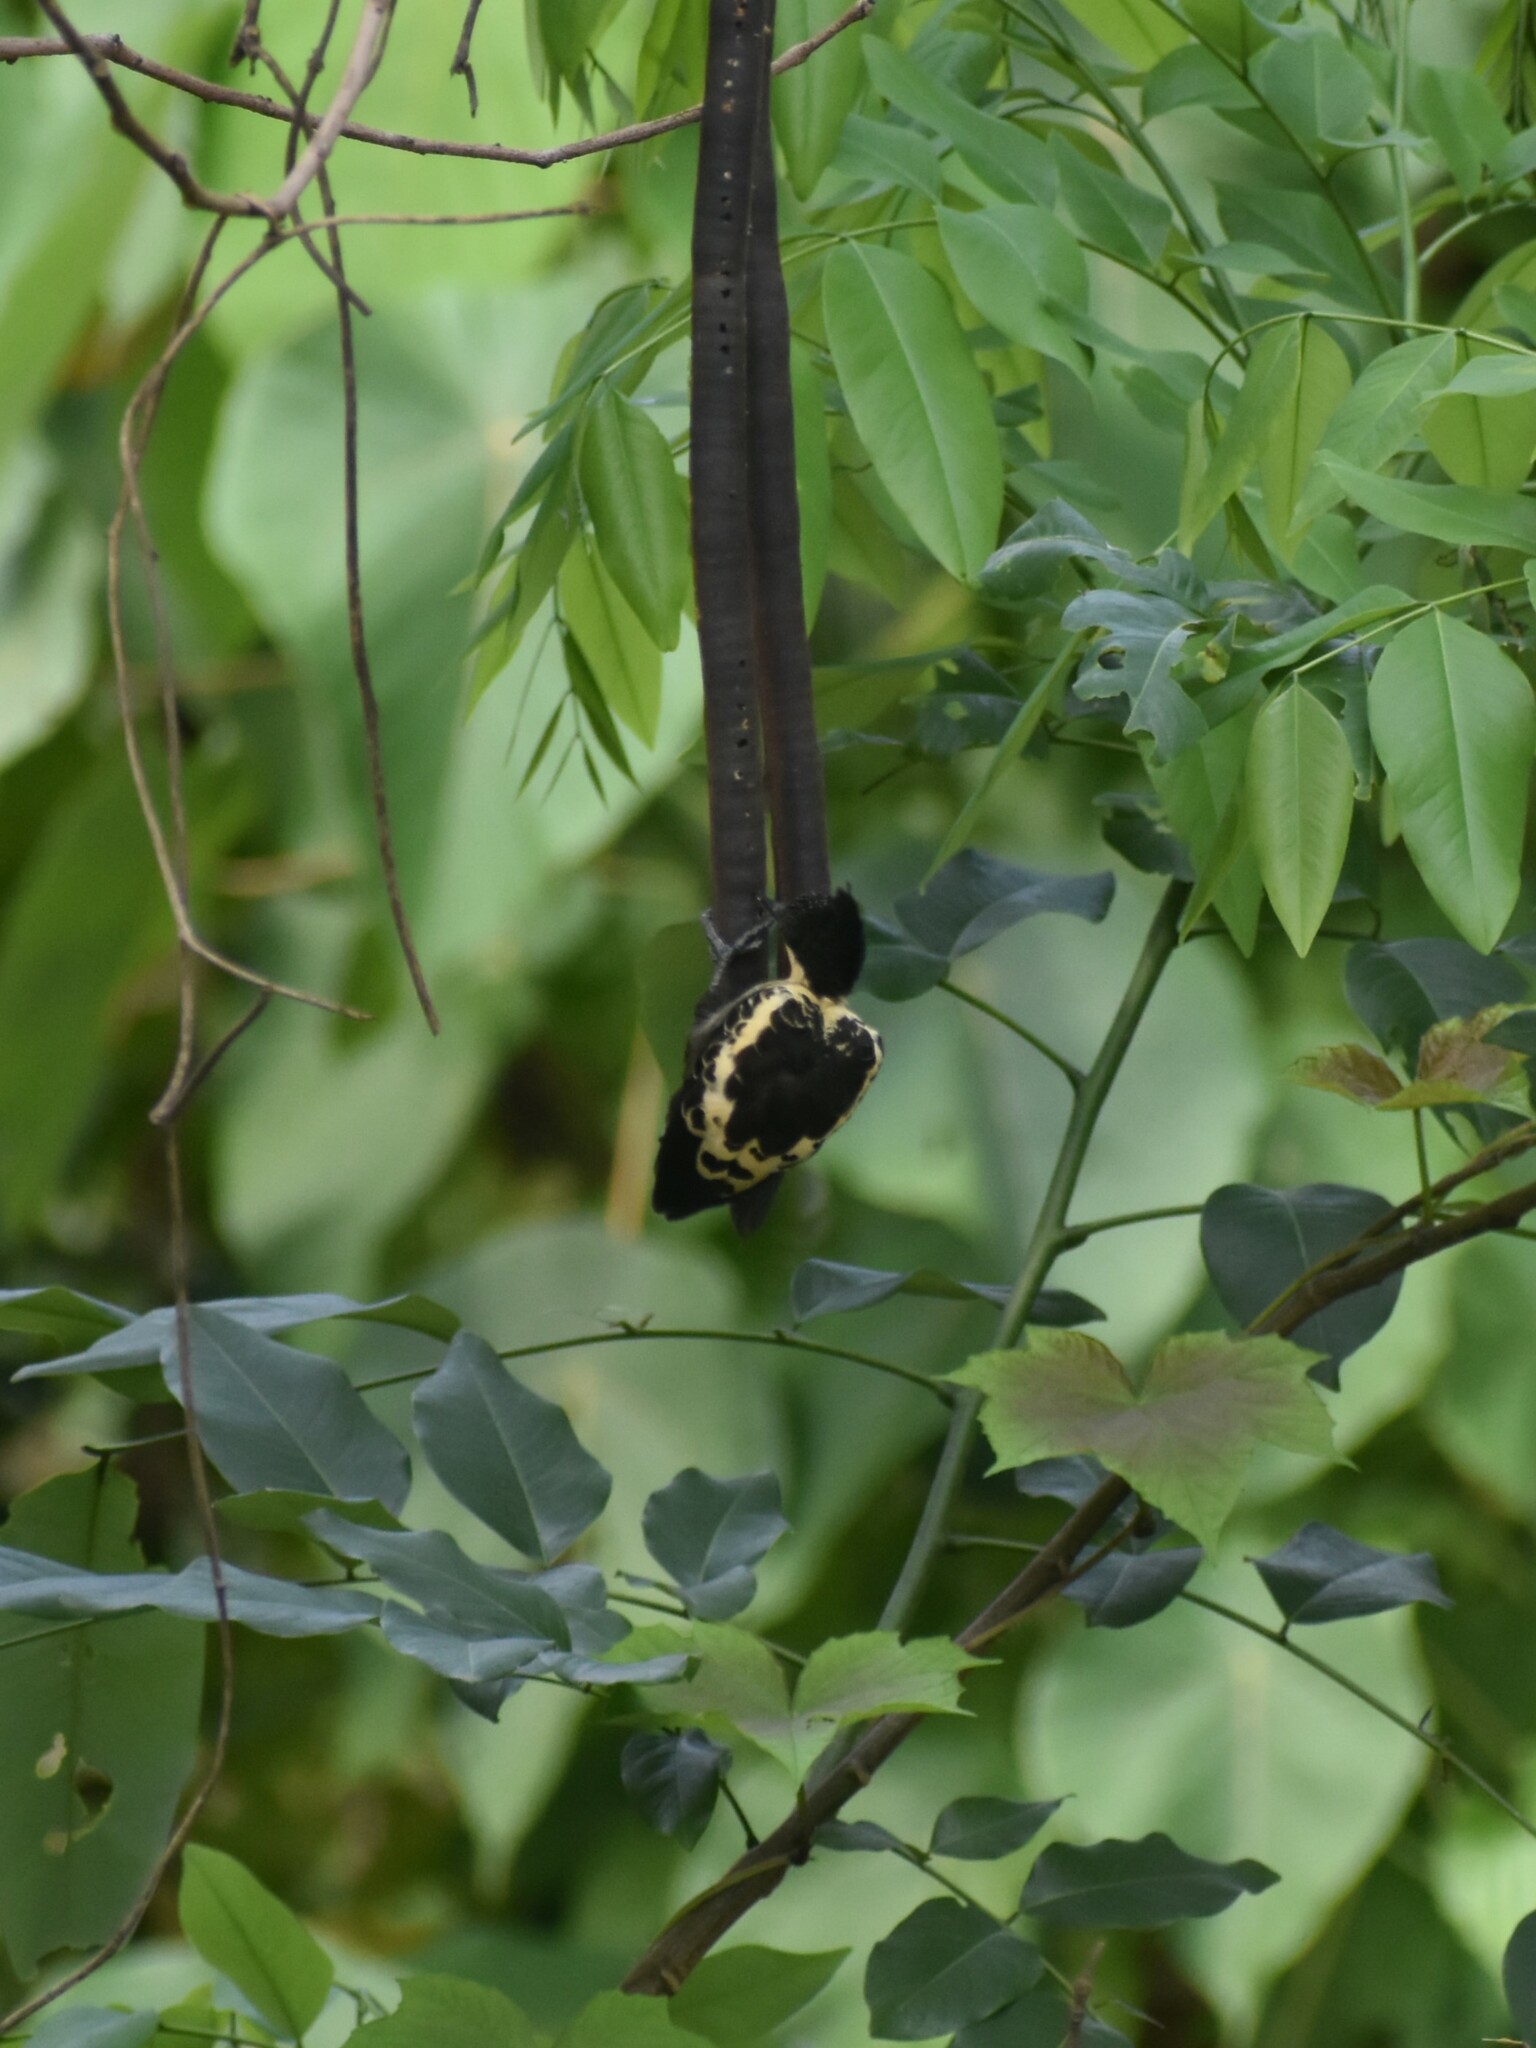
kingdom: Animalia
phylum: Chordata
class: Aves
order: Piciformes
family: Picidae
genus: Hemicircus
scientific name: Hemicircus canente
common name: Heart-spotted woodpecker
